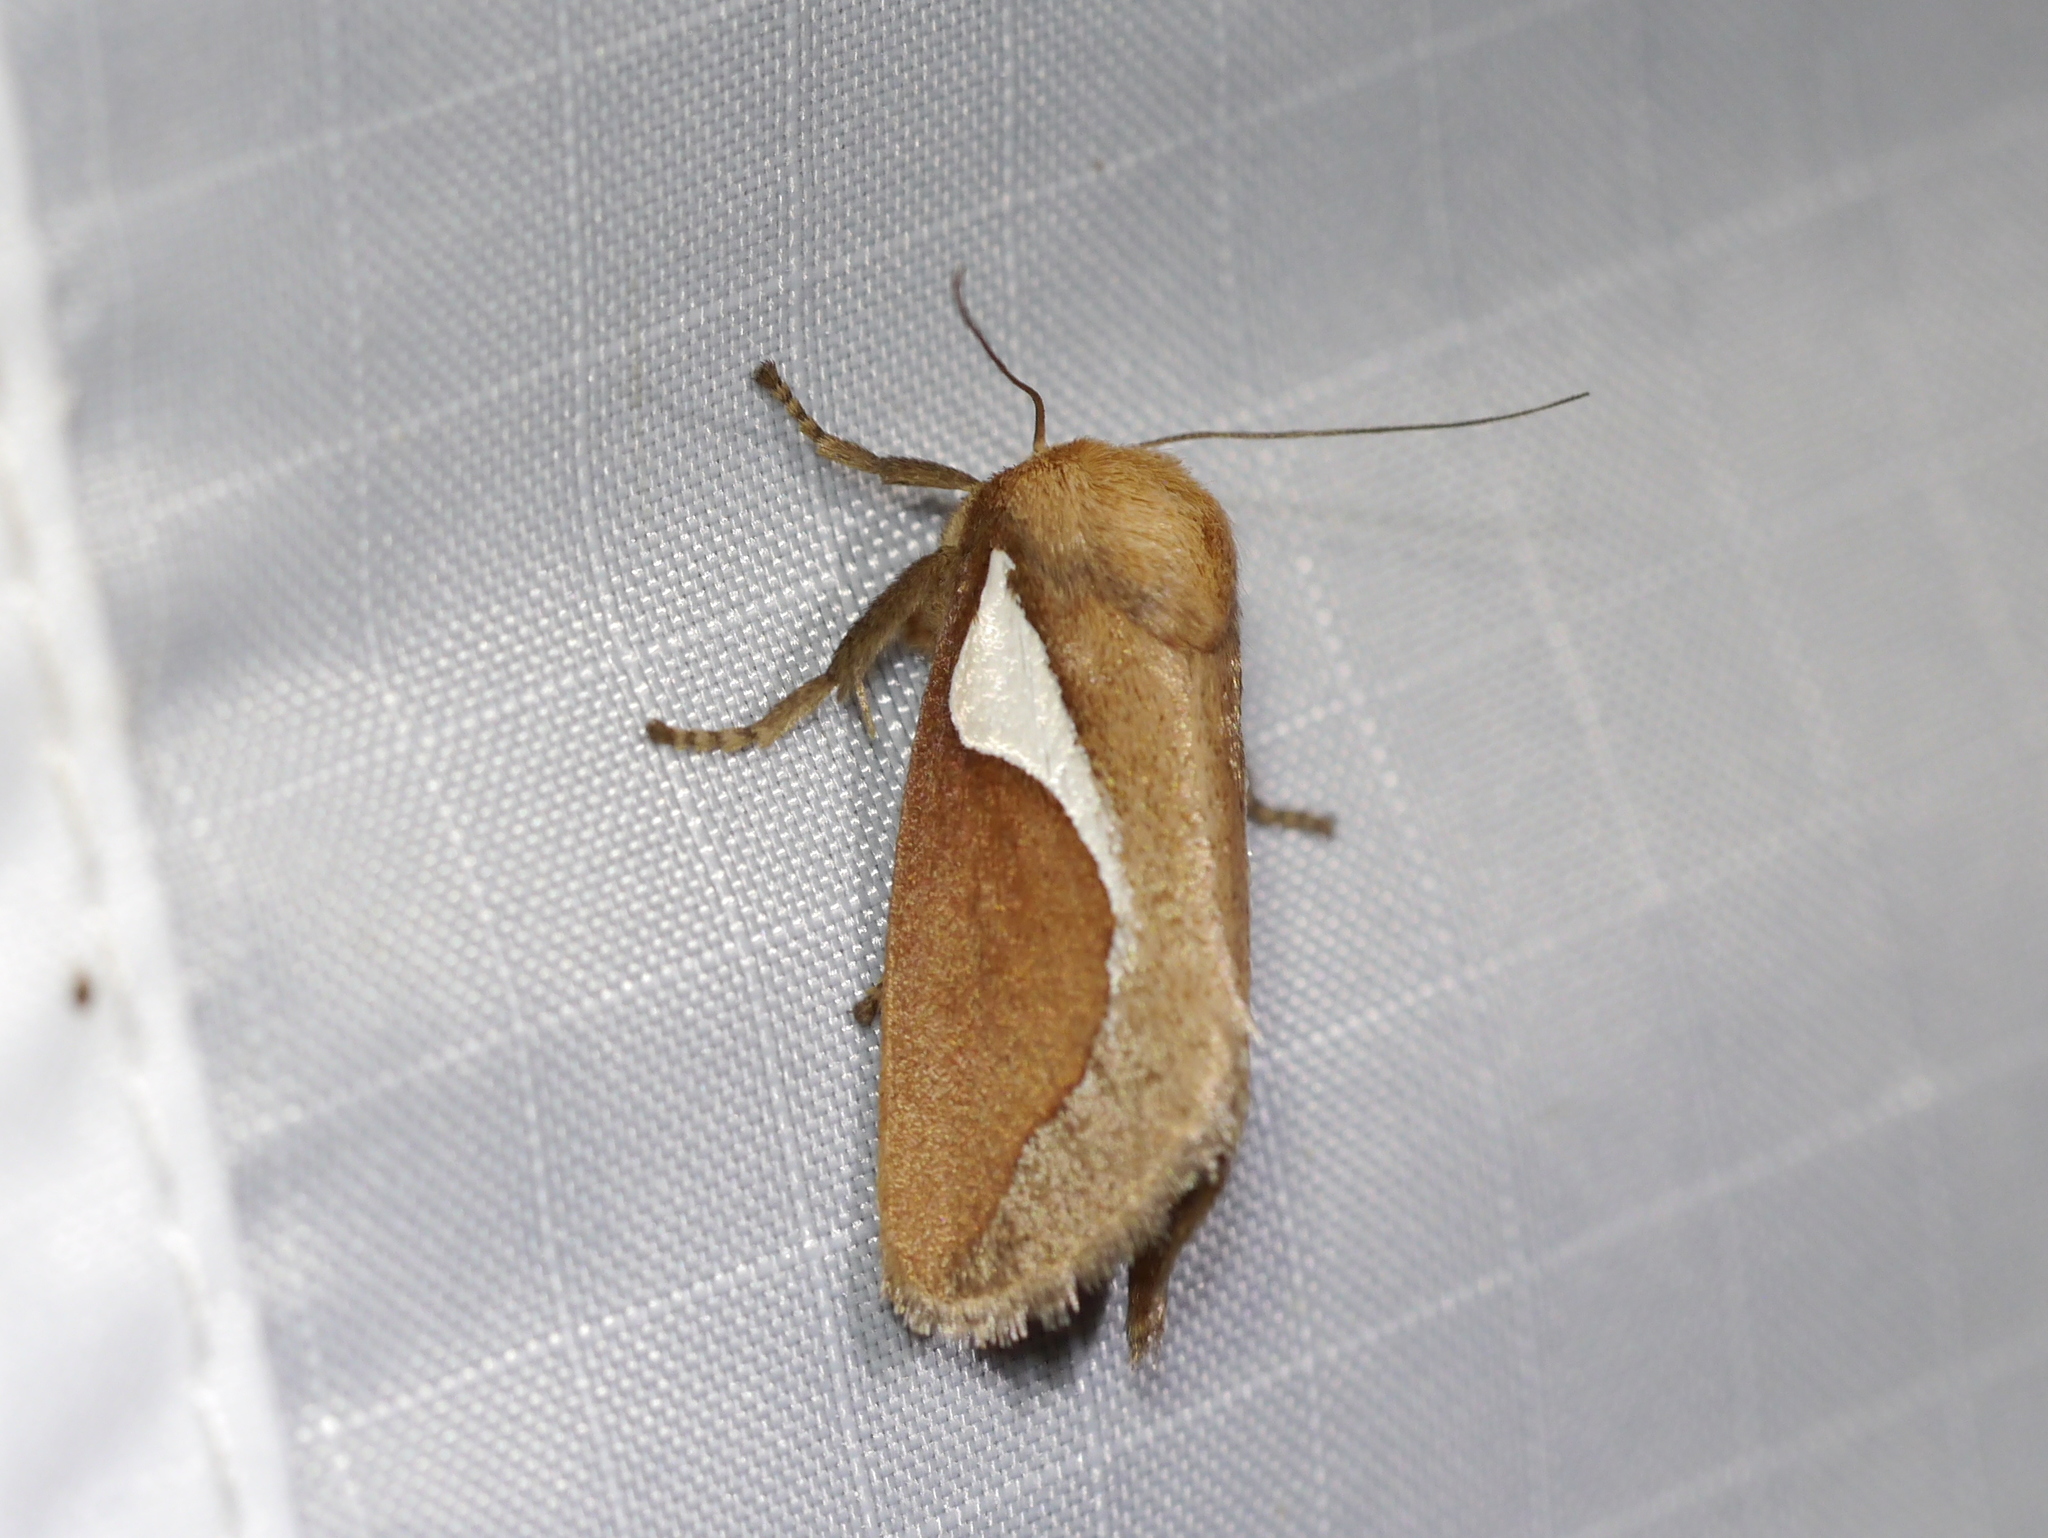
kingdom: Animalia
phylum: Arthropoda
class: Insecta
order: Lepidoptera
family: Limacodidae
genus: Prolimacodes
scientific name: Prolimacodes trigona
